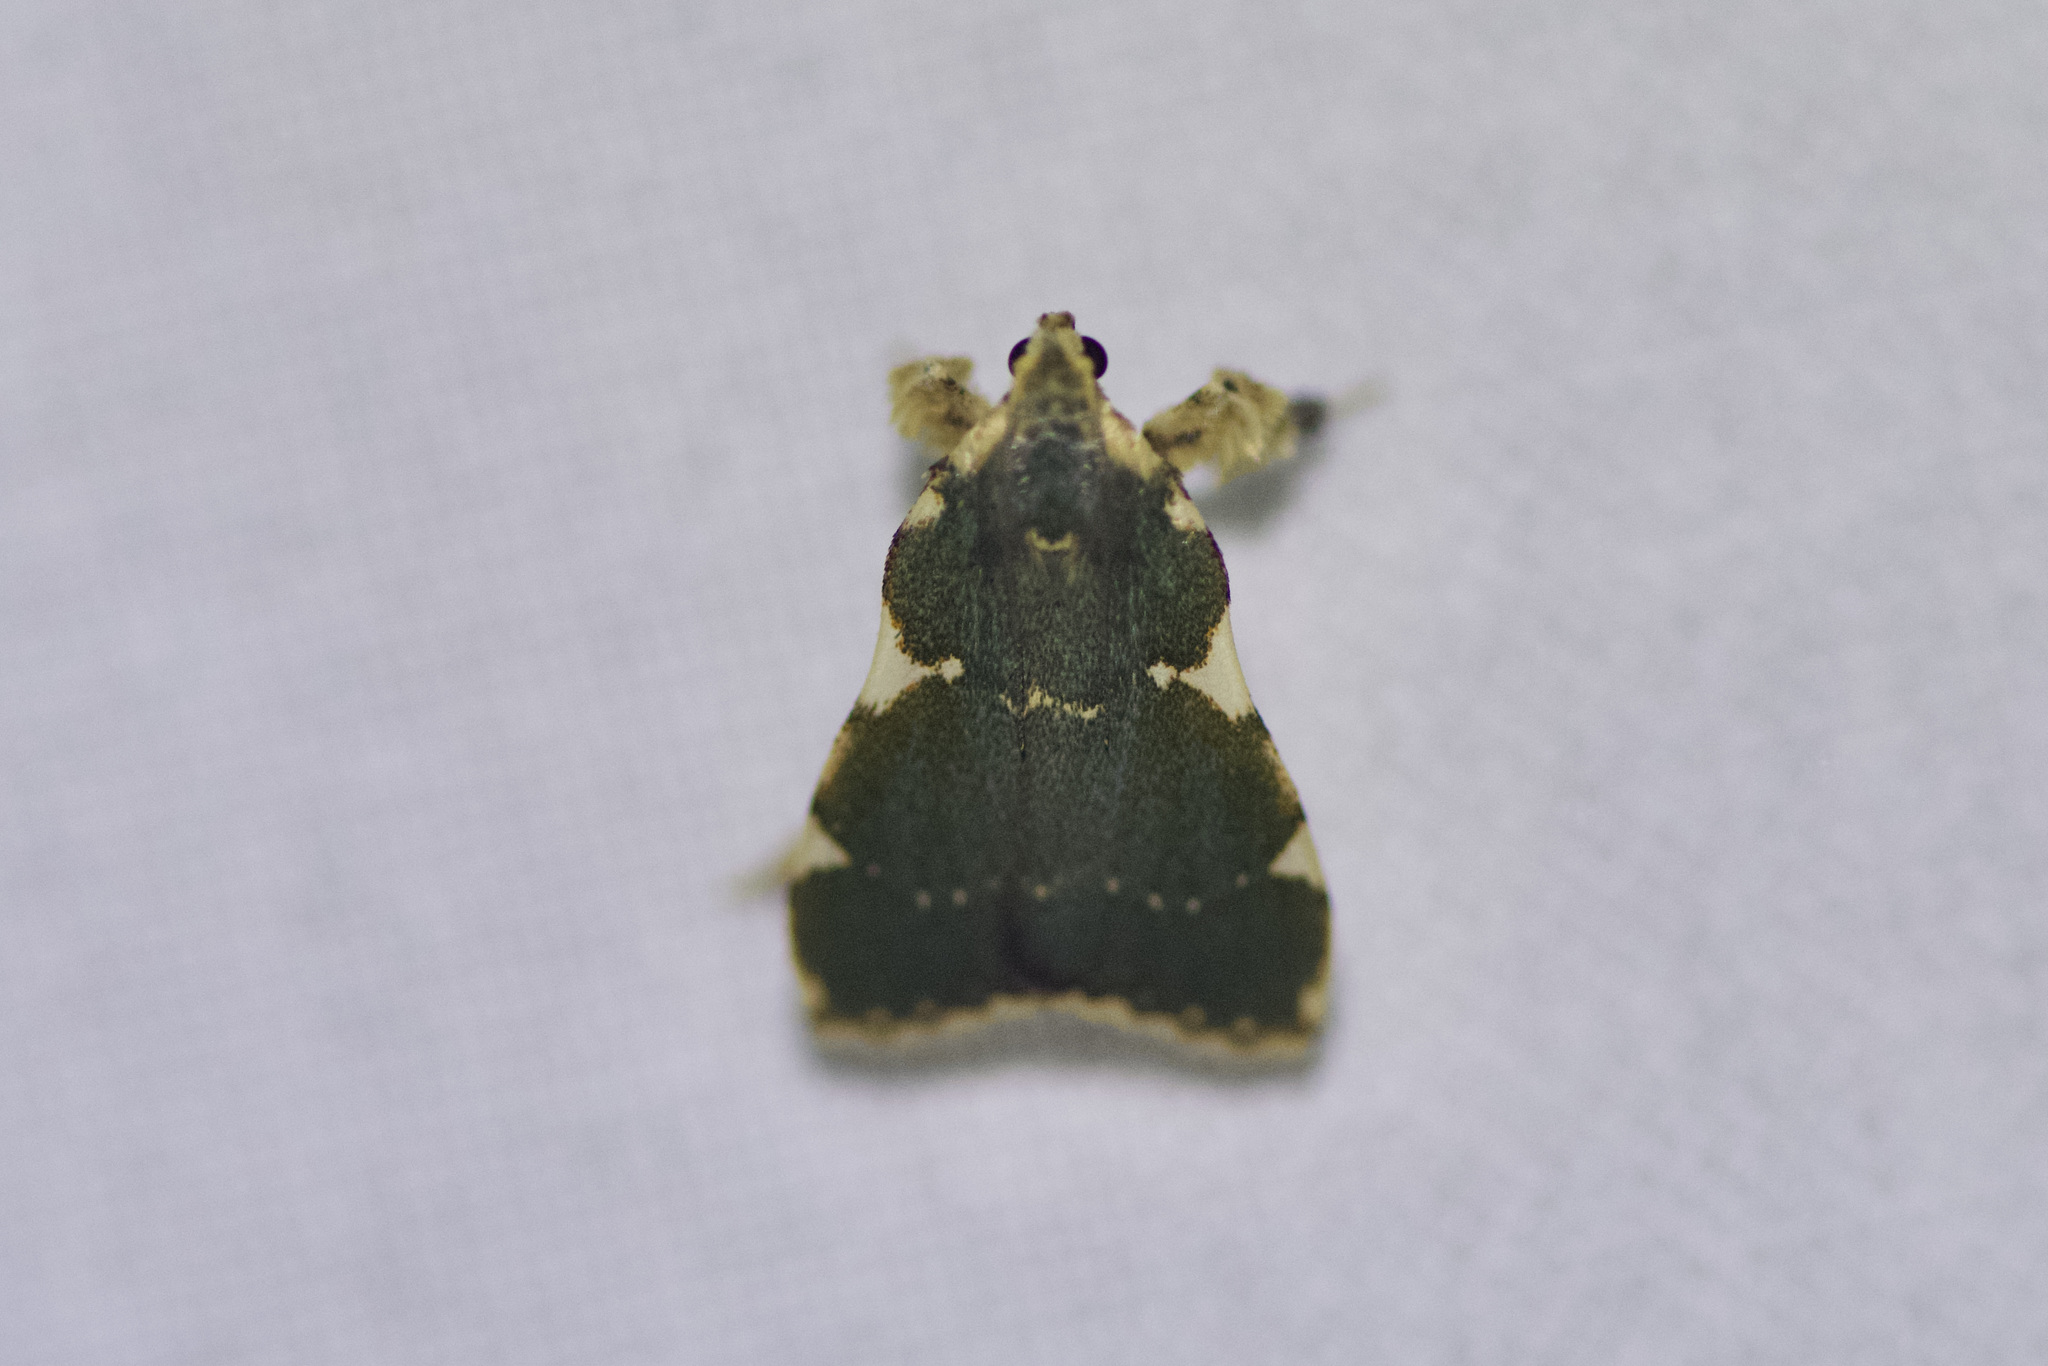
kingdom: Animalia
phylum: Arthropoda
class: Insecta
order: Lepidoptera
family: Pyralidae
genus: Parachma
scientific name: Parachma rufoflavalis
